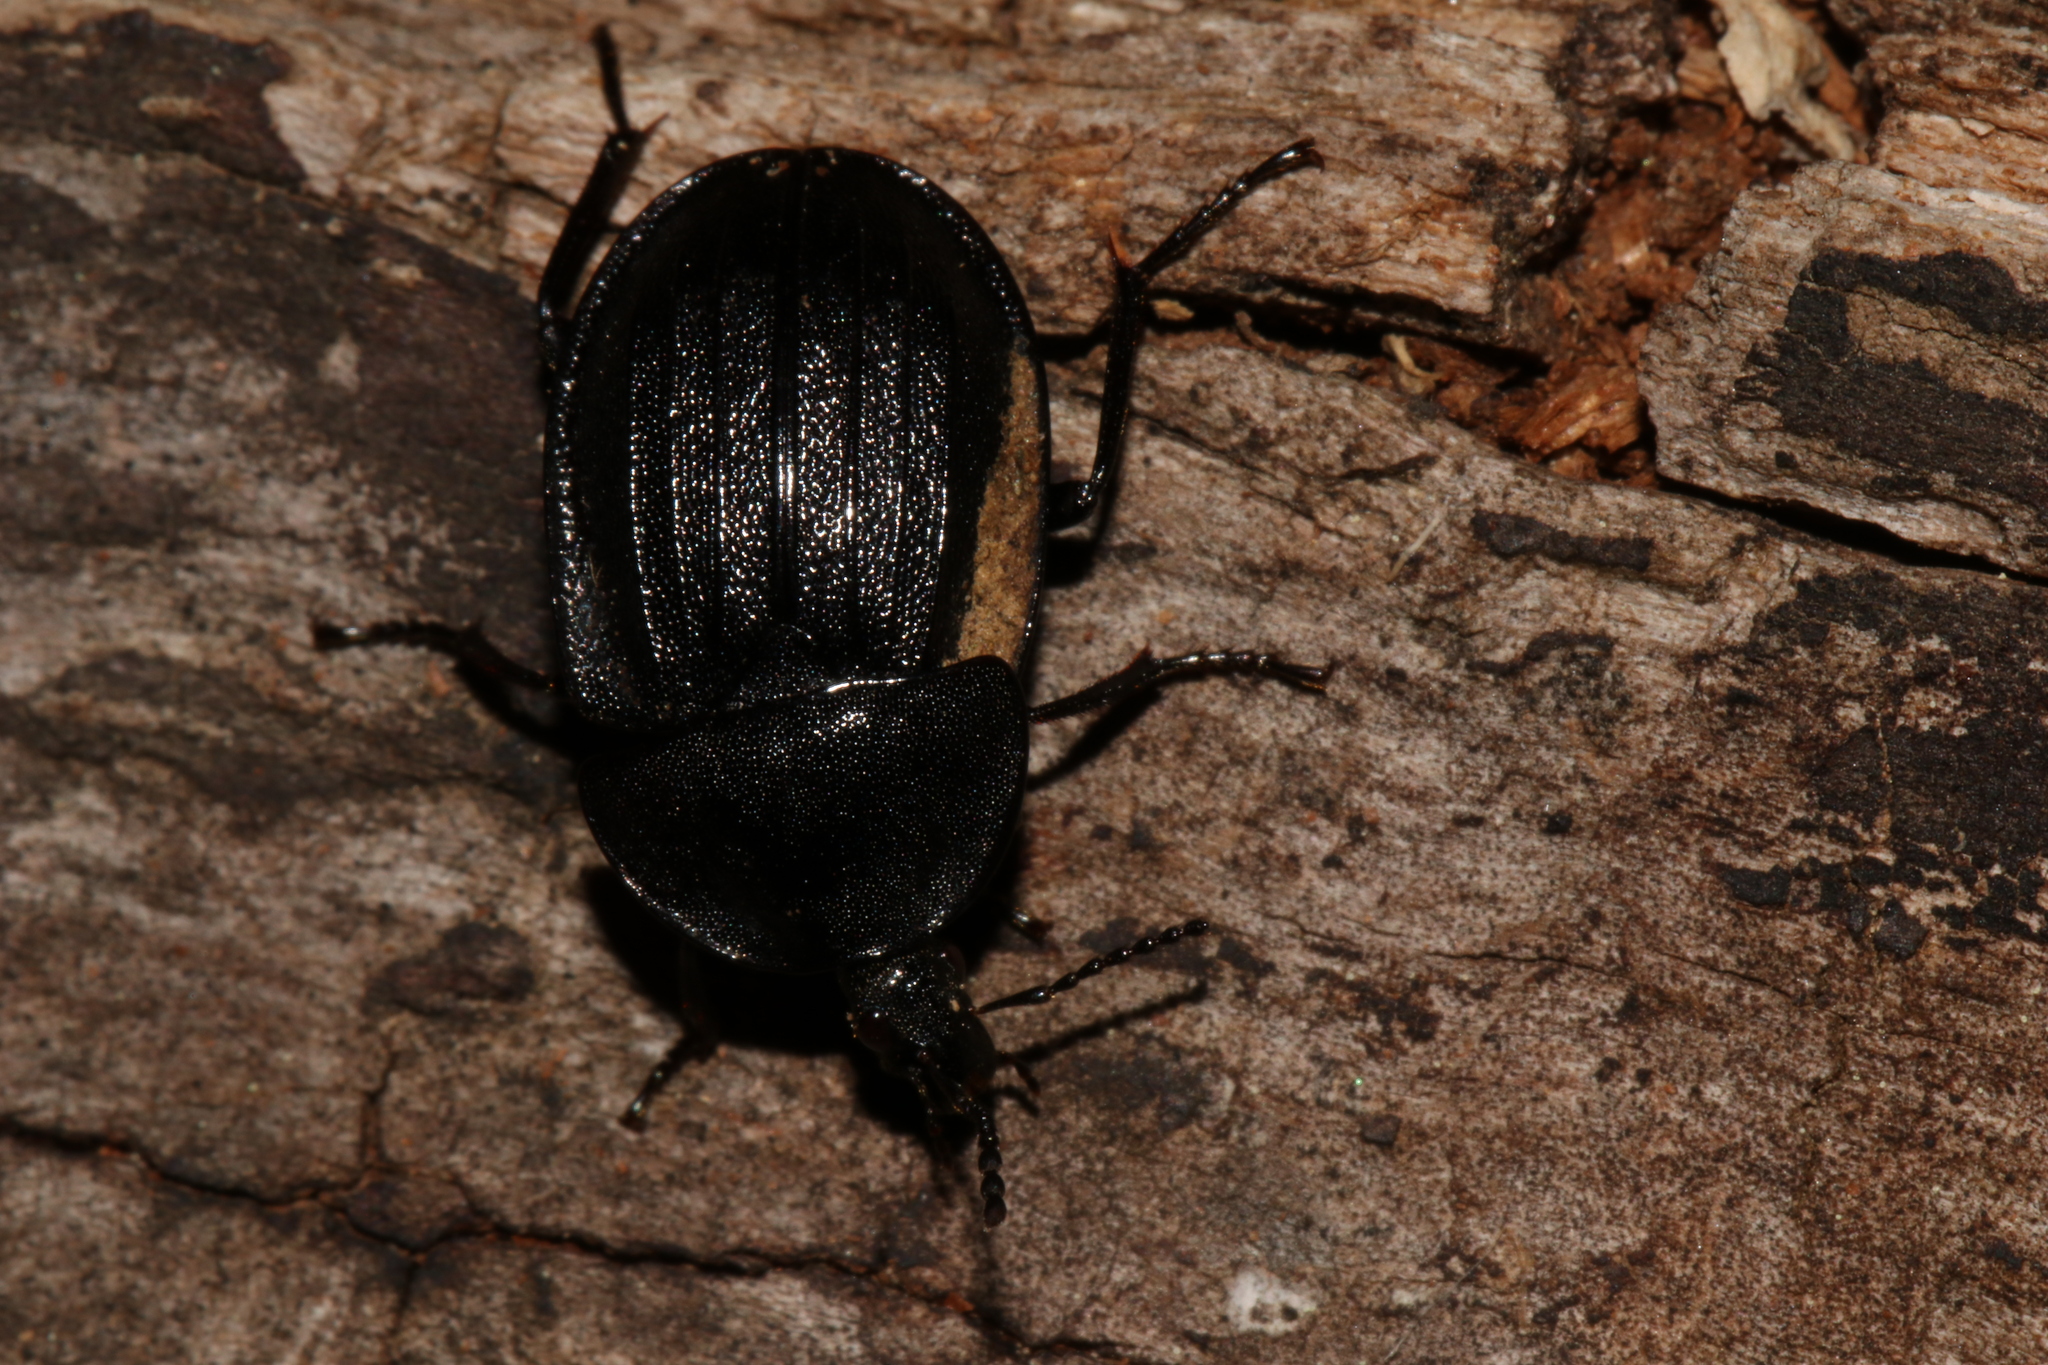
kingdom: Animalia
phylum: Arthropoda
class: Insecta
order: Coleoptera
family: Staphylinidae
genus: Silpha
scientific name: Silpha atrata
